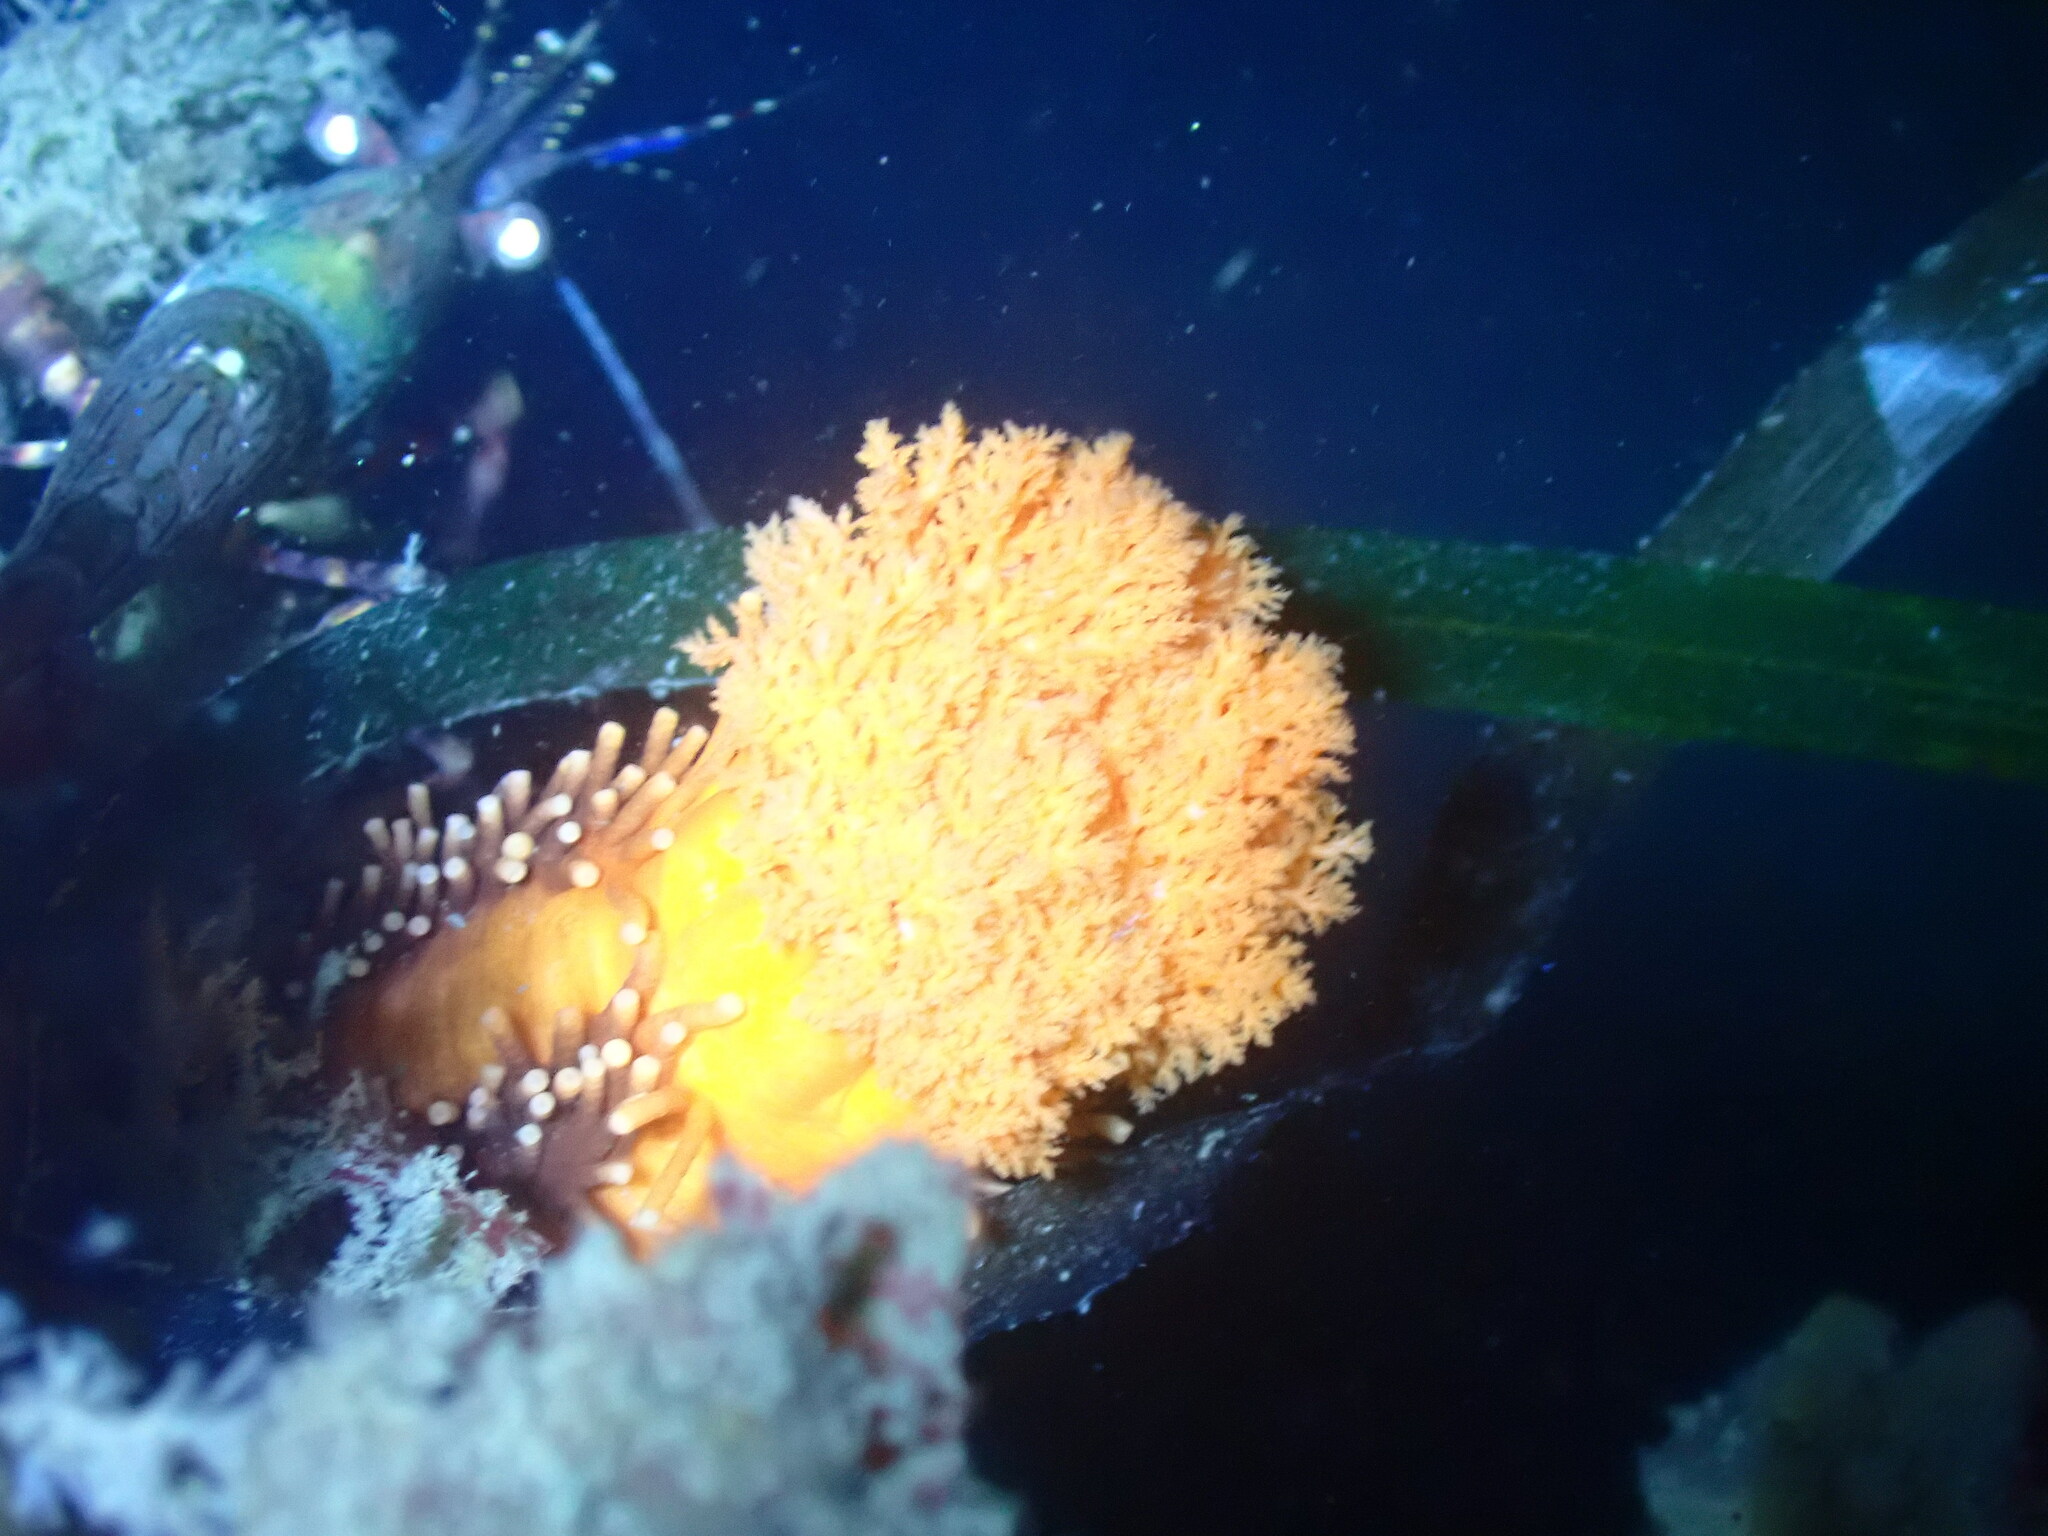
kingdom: Animalia
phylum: Echinodermata
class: Holothuroidea
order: Dendrochirotida
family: Cucumariidae
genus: Cucumaria
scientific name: Cucumaria miniata
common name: Orange sea cucumber
